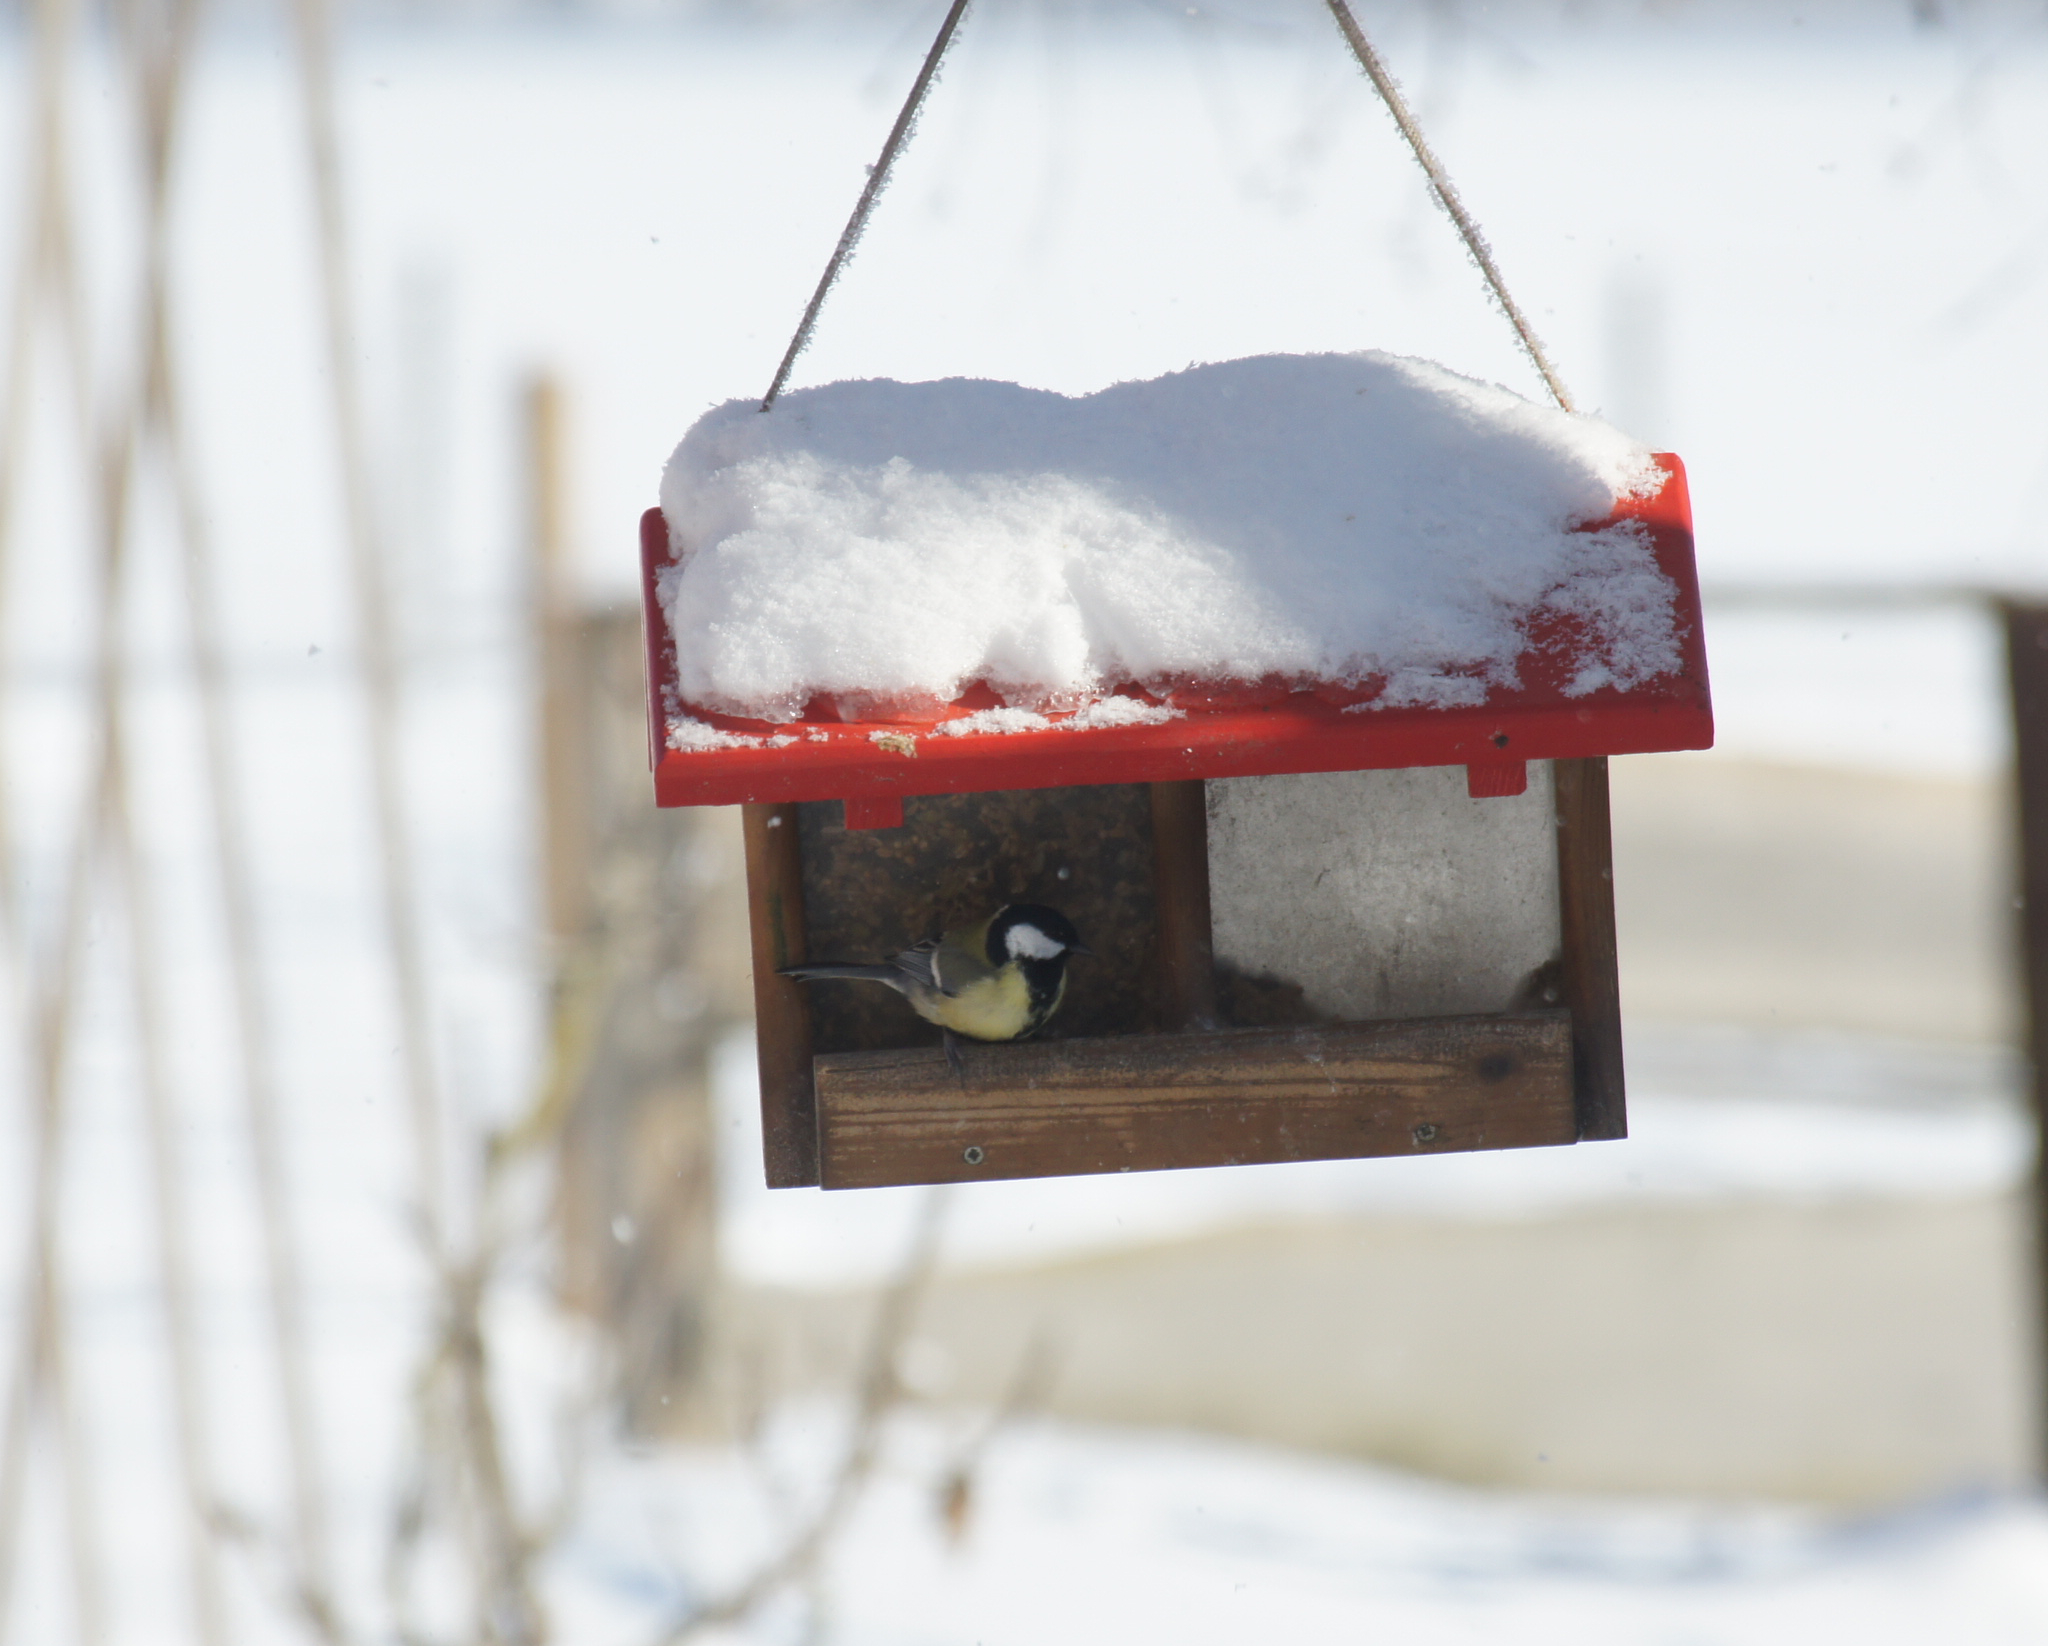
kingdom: Animalia
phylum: Chordata
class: Aves
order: Passeriformes
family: Paridae
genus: Parus
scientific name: Parus major
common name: Great tit
